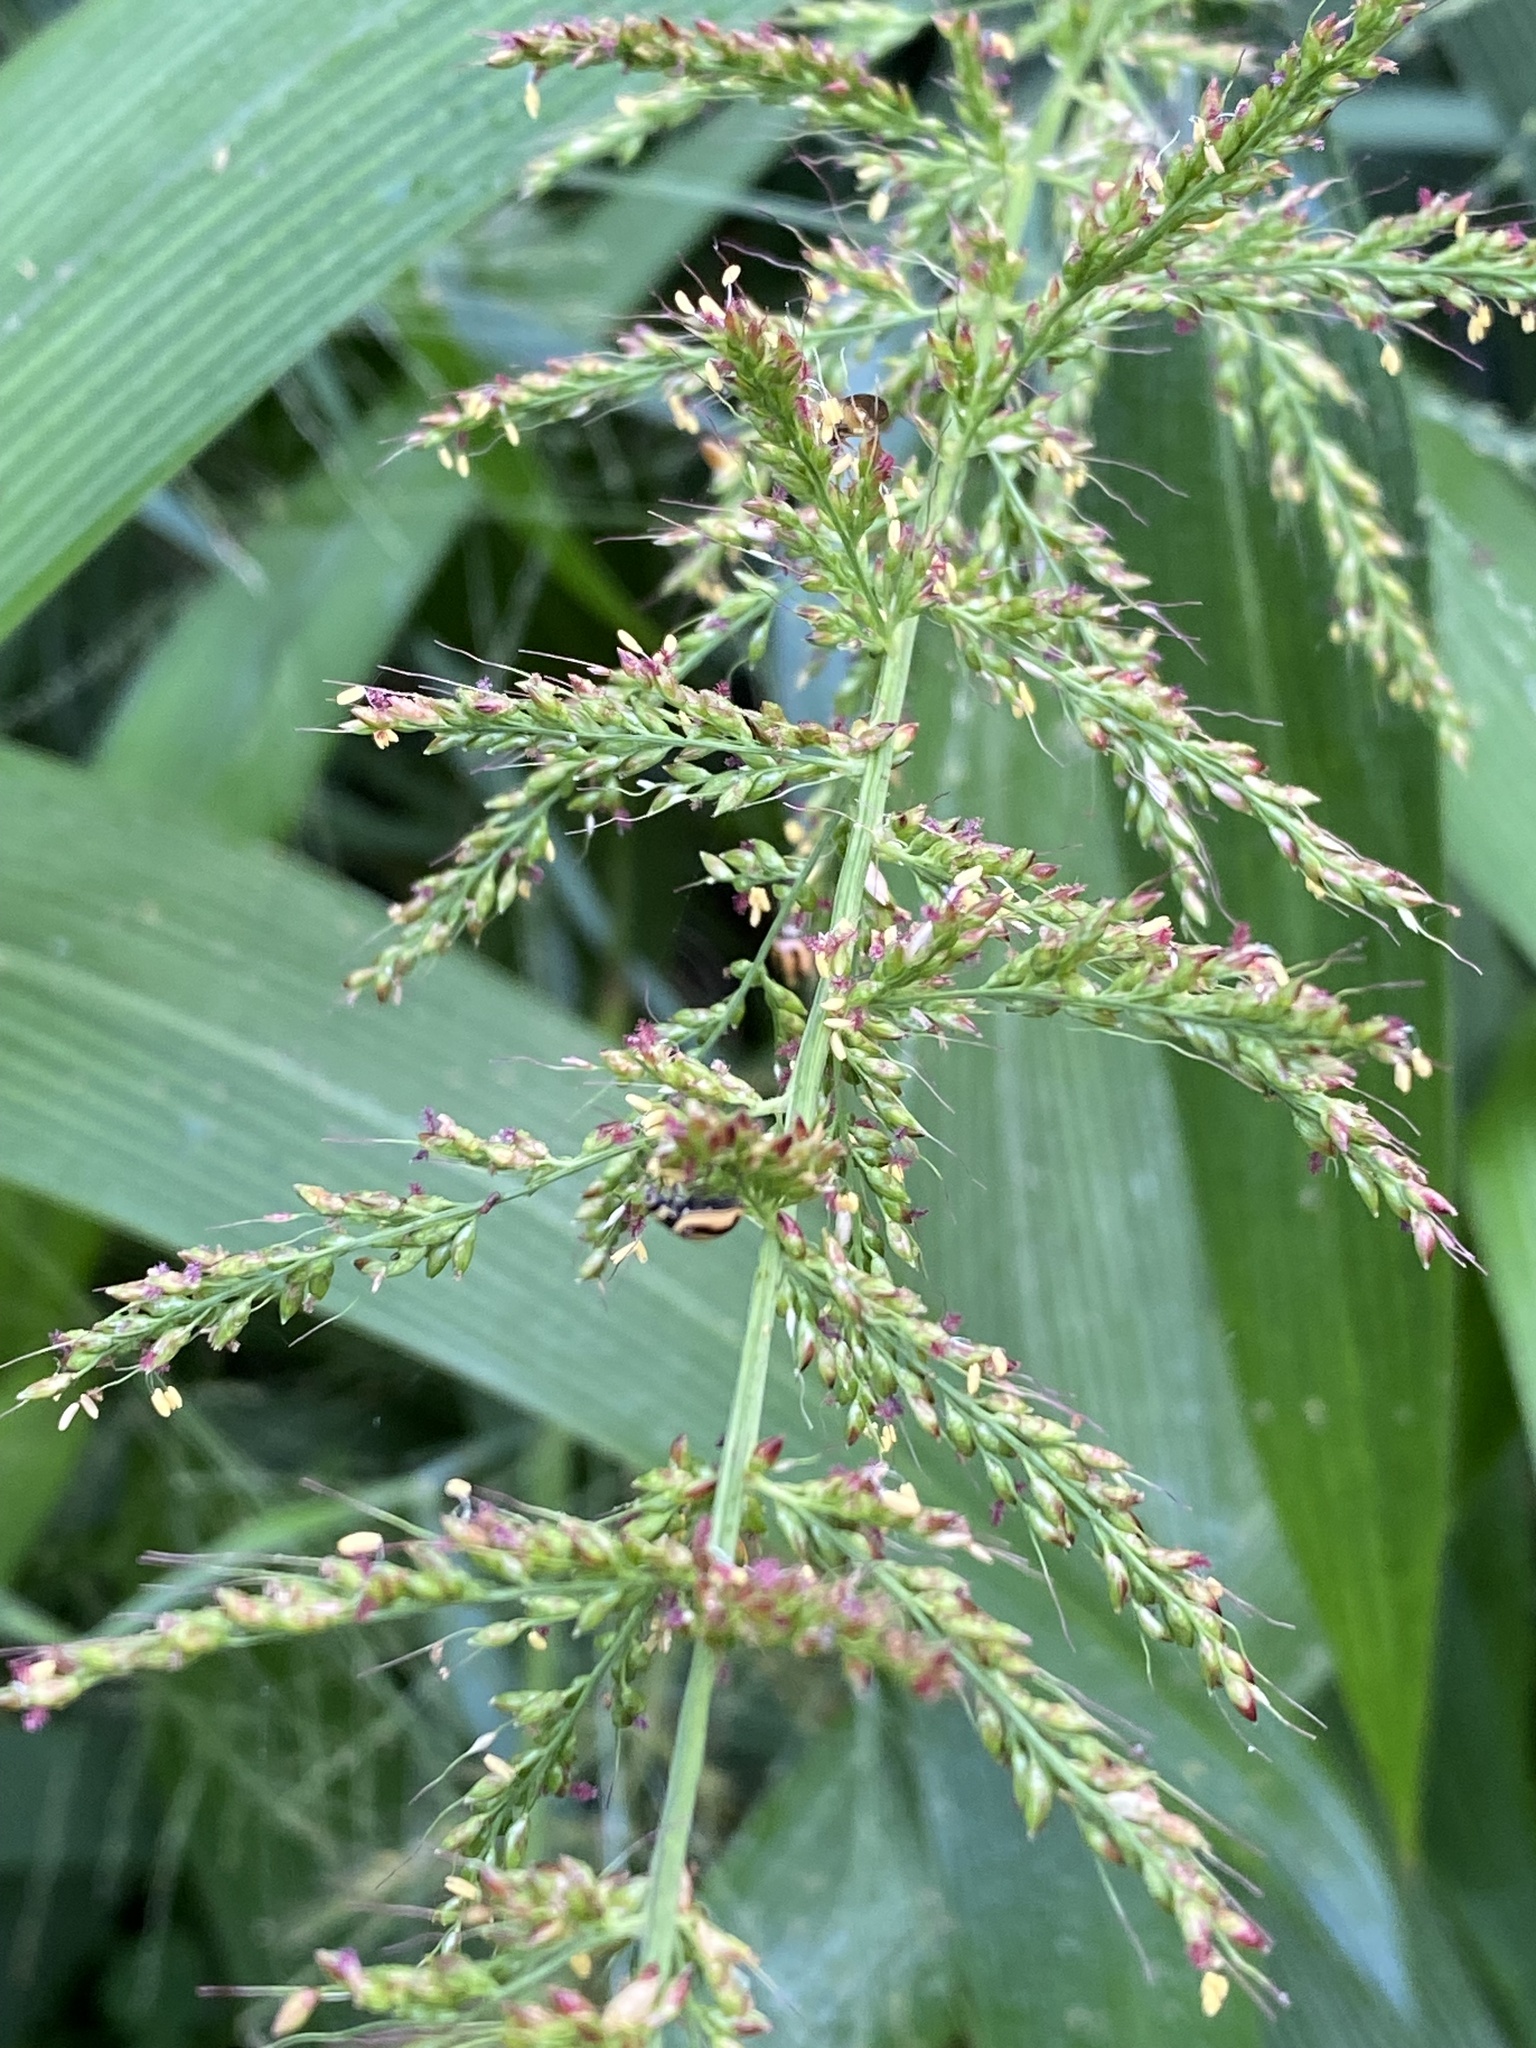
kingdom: Plantae
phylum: Tracheophyta
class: Liliopsida
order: Poales
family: Poaceae
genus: Setaria
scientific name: Setaria palmifolia
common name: Broadleaved bristlegrass
